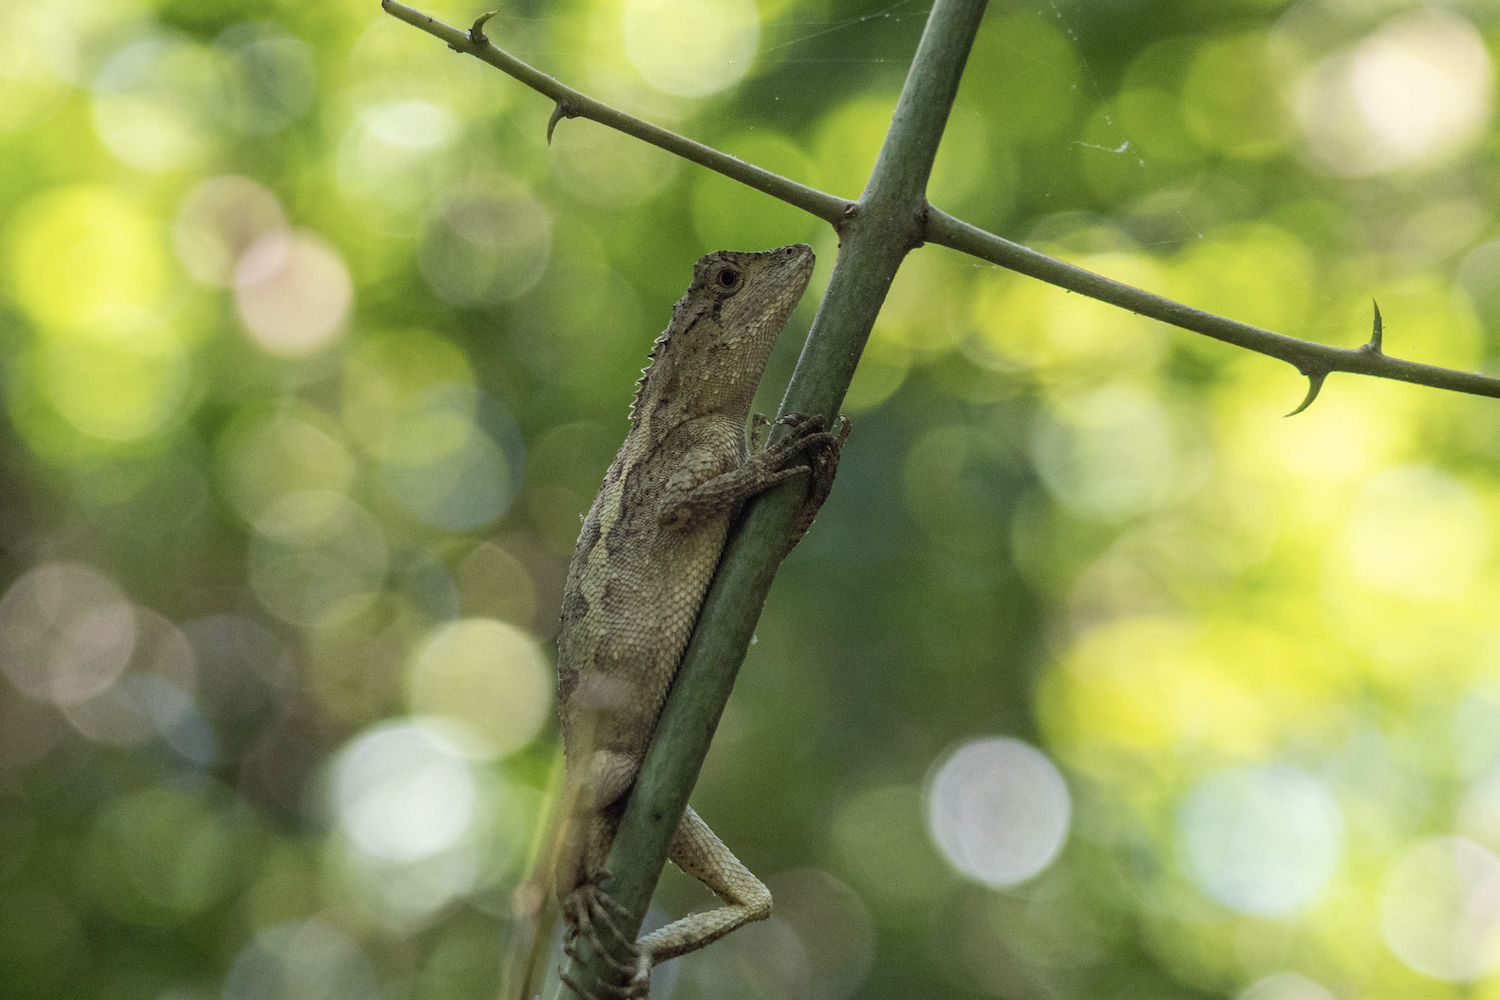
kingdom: Animalia
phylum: Chordata
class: Squamata
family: Agamidae
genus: Diploderma
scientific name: Diploderma swinhonis
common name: Taiwan japalure
